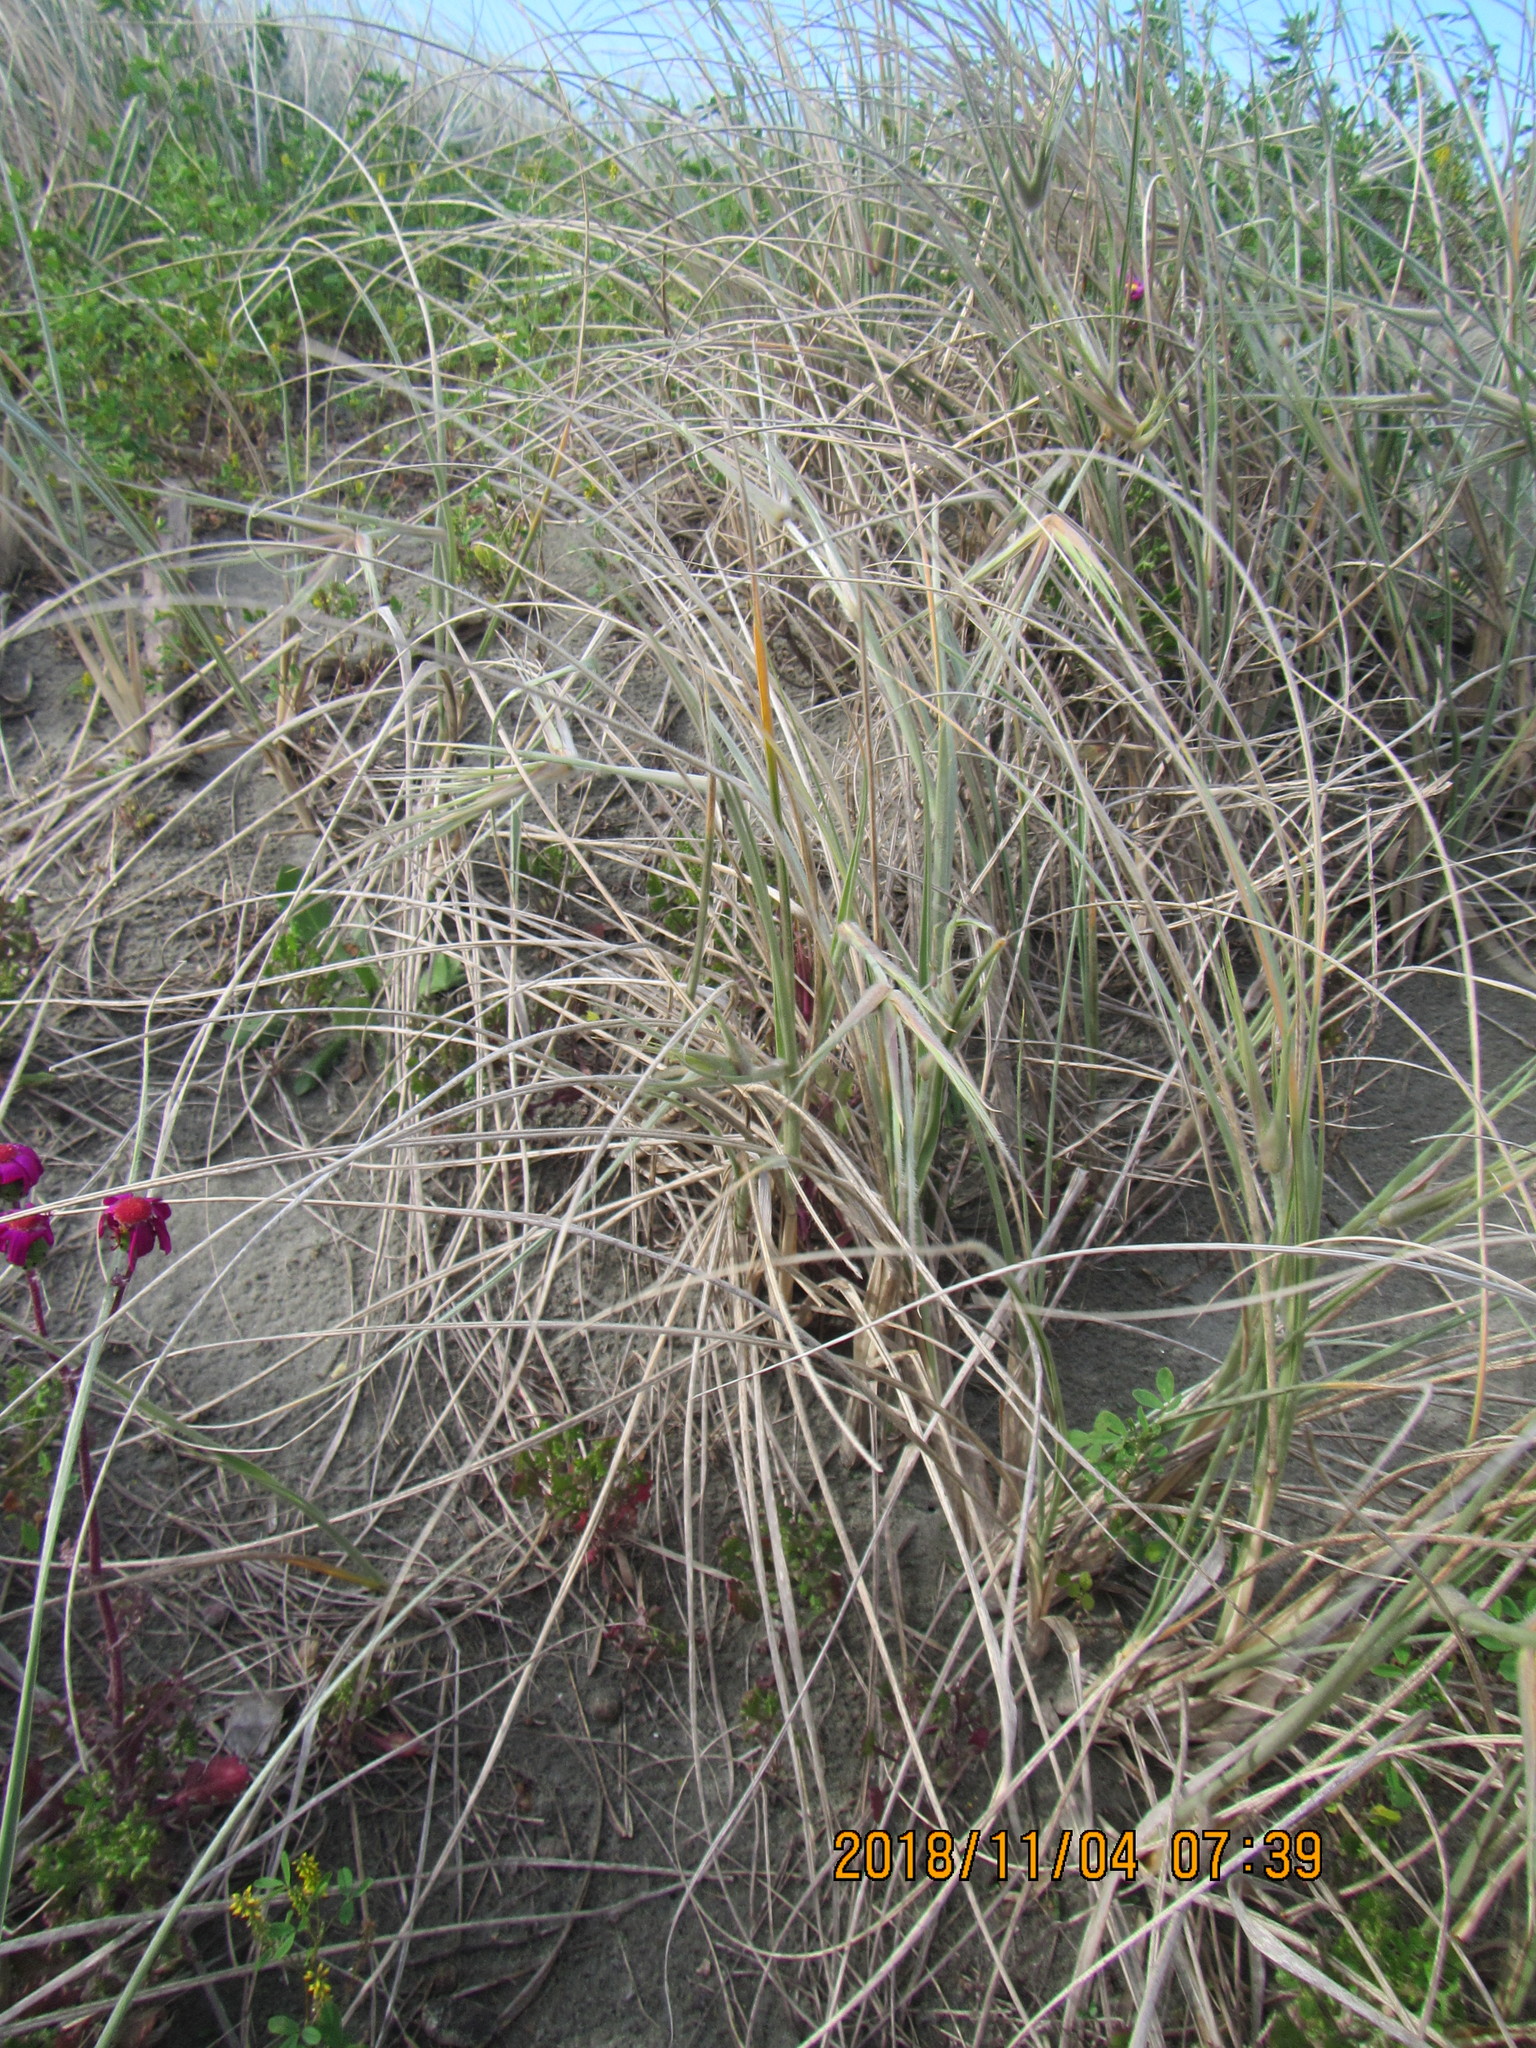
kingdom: Plantae
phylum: Tracheophyta
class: Liliopsida
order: Poales
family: Poaceae
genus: Spinifex
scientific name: Spinifex sericeus
